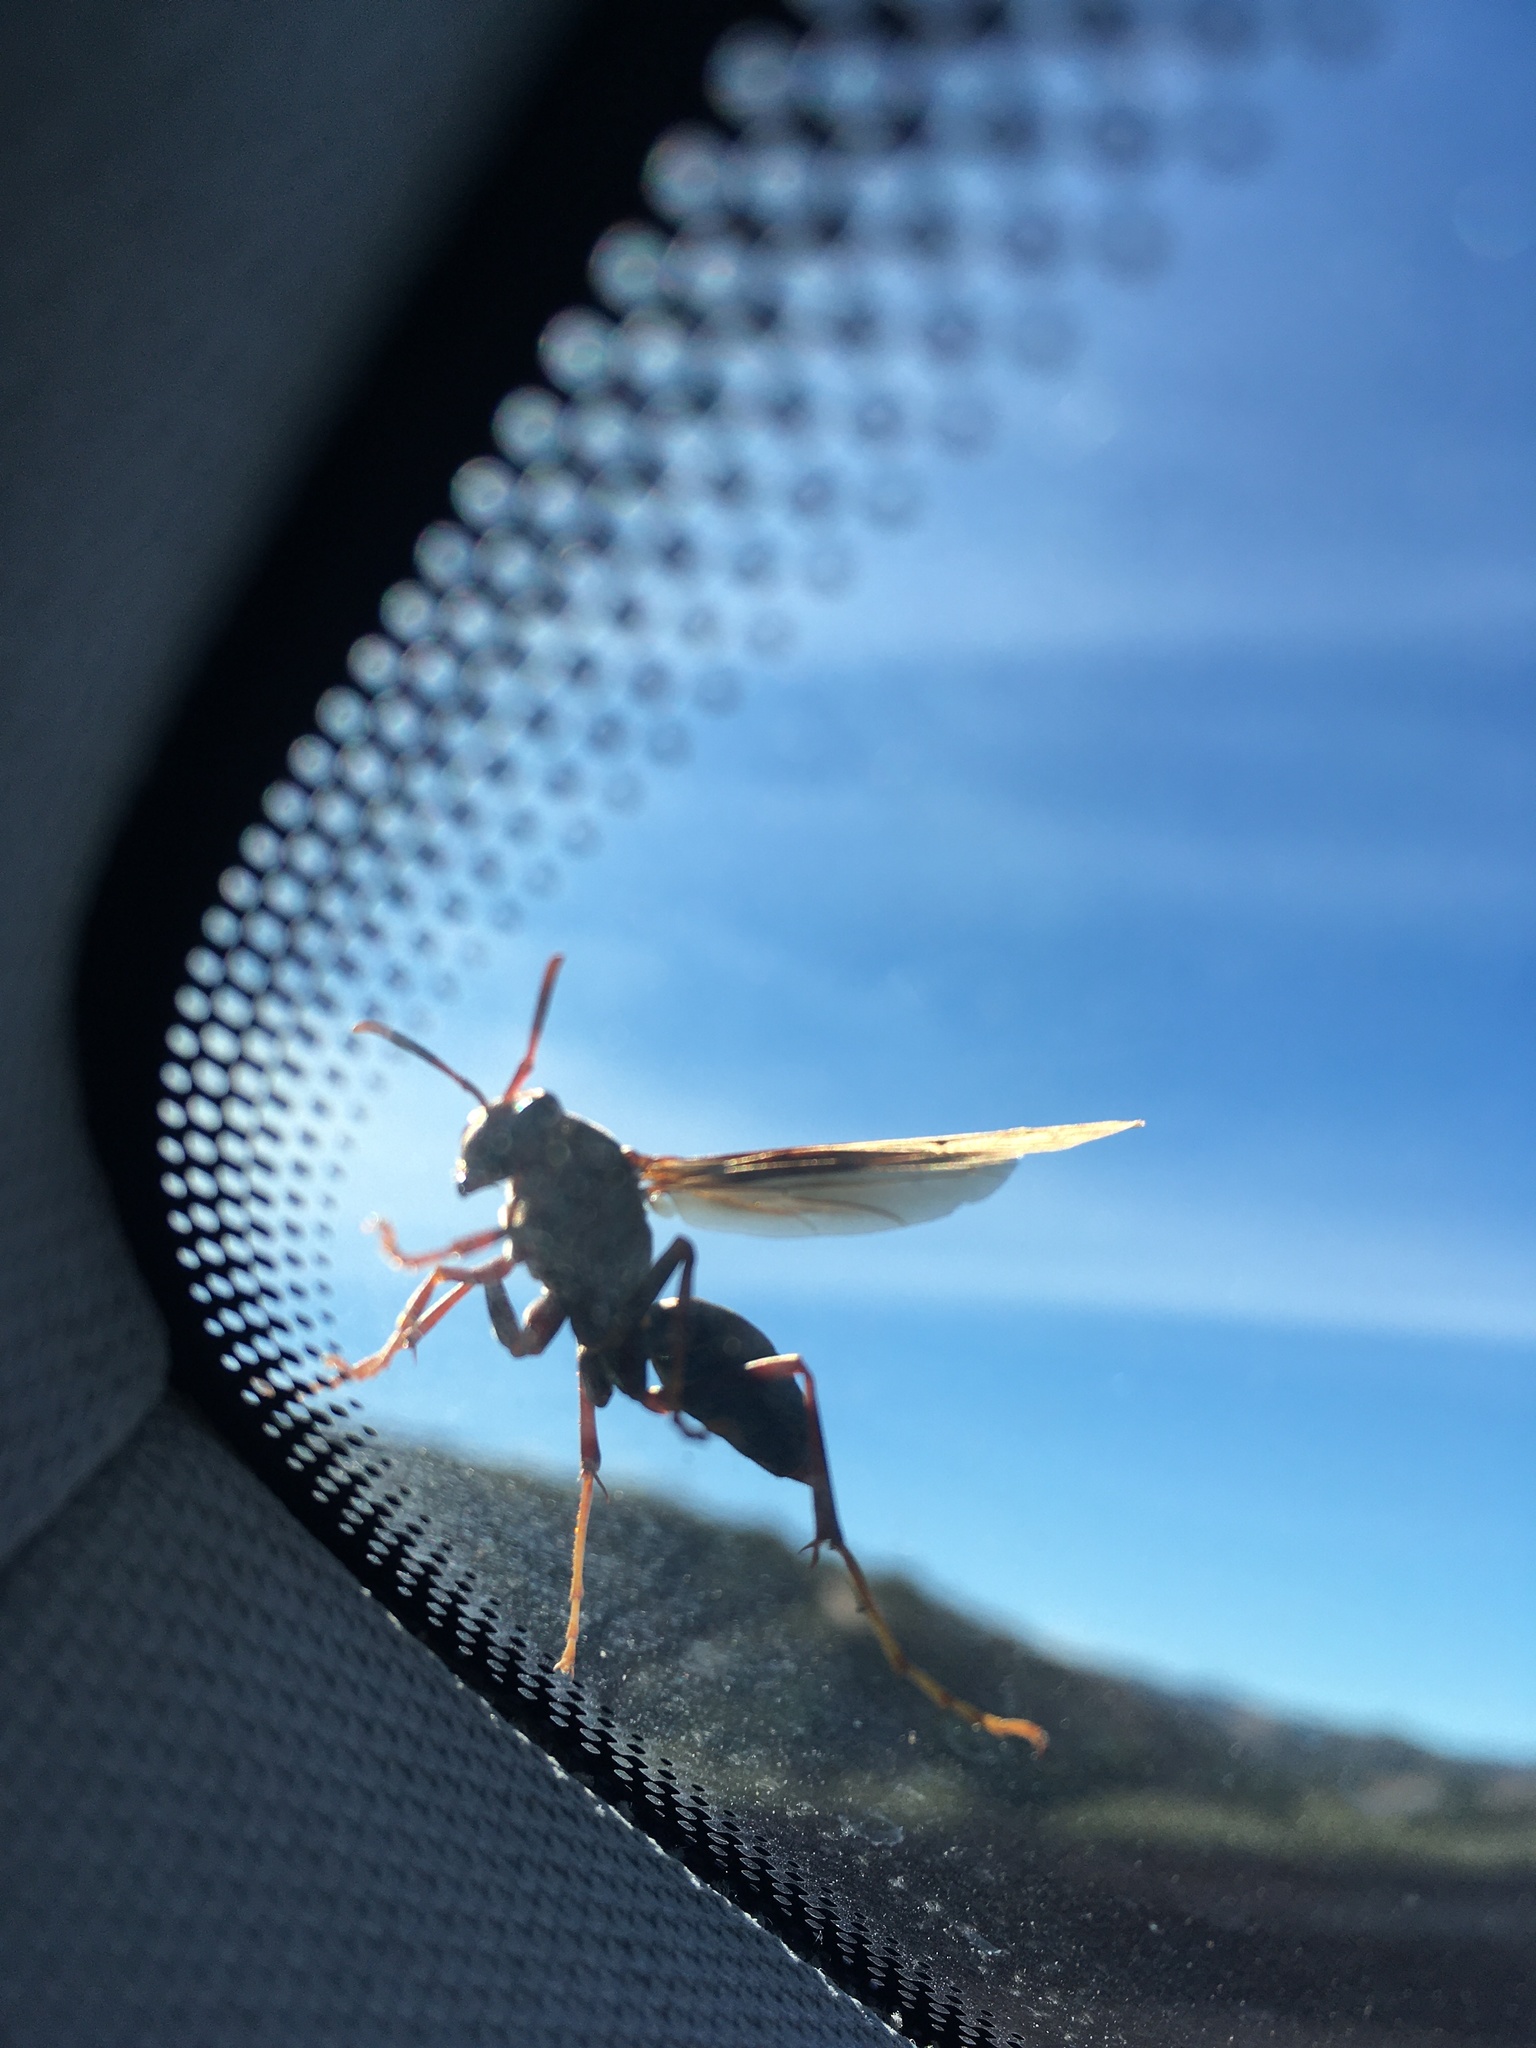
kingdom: Animalia
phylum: Arthropoda
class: Insecta
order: Hymenoptera
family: Eumenidae
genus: Polistes
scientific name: Polistes
